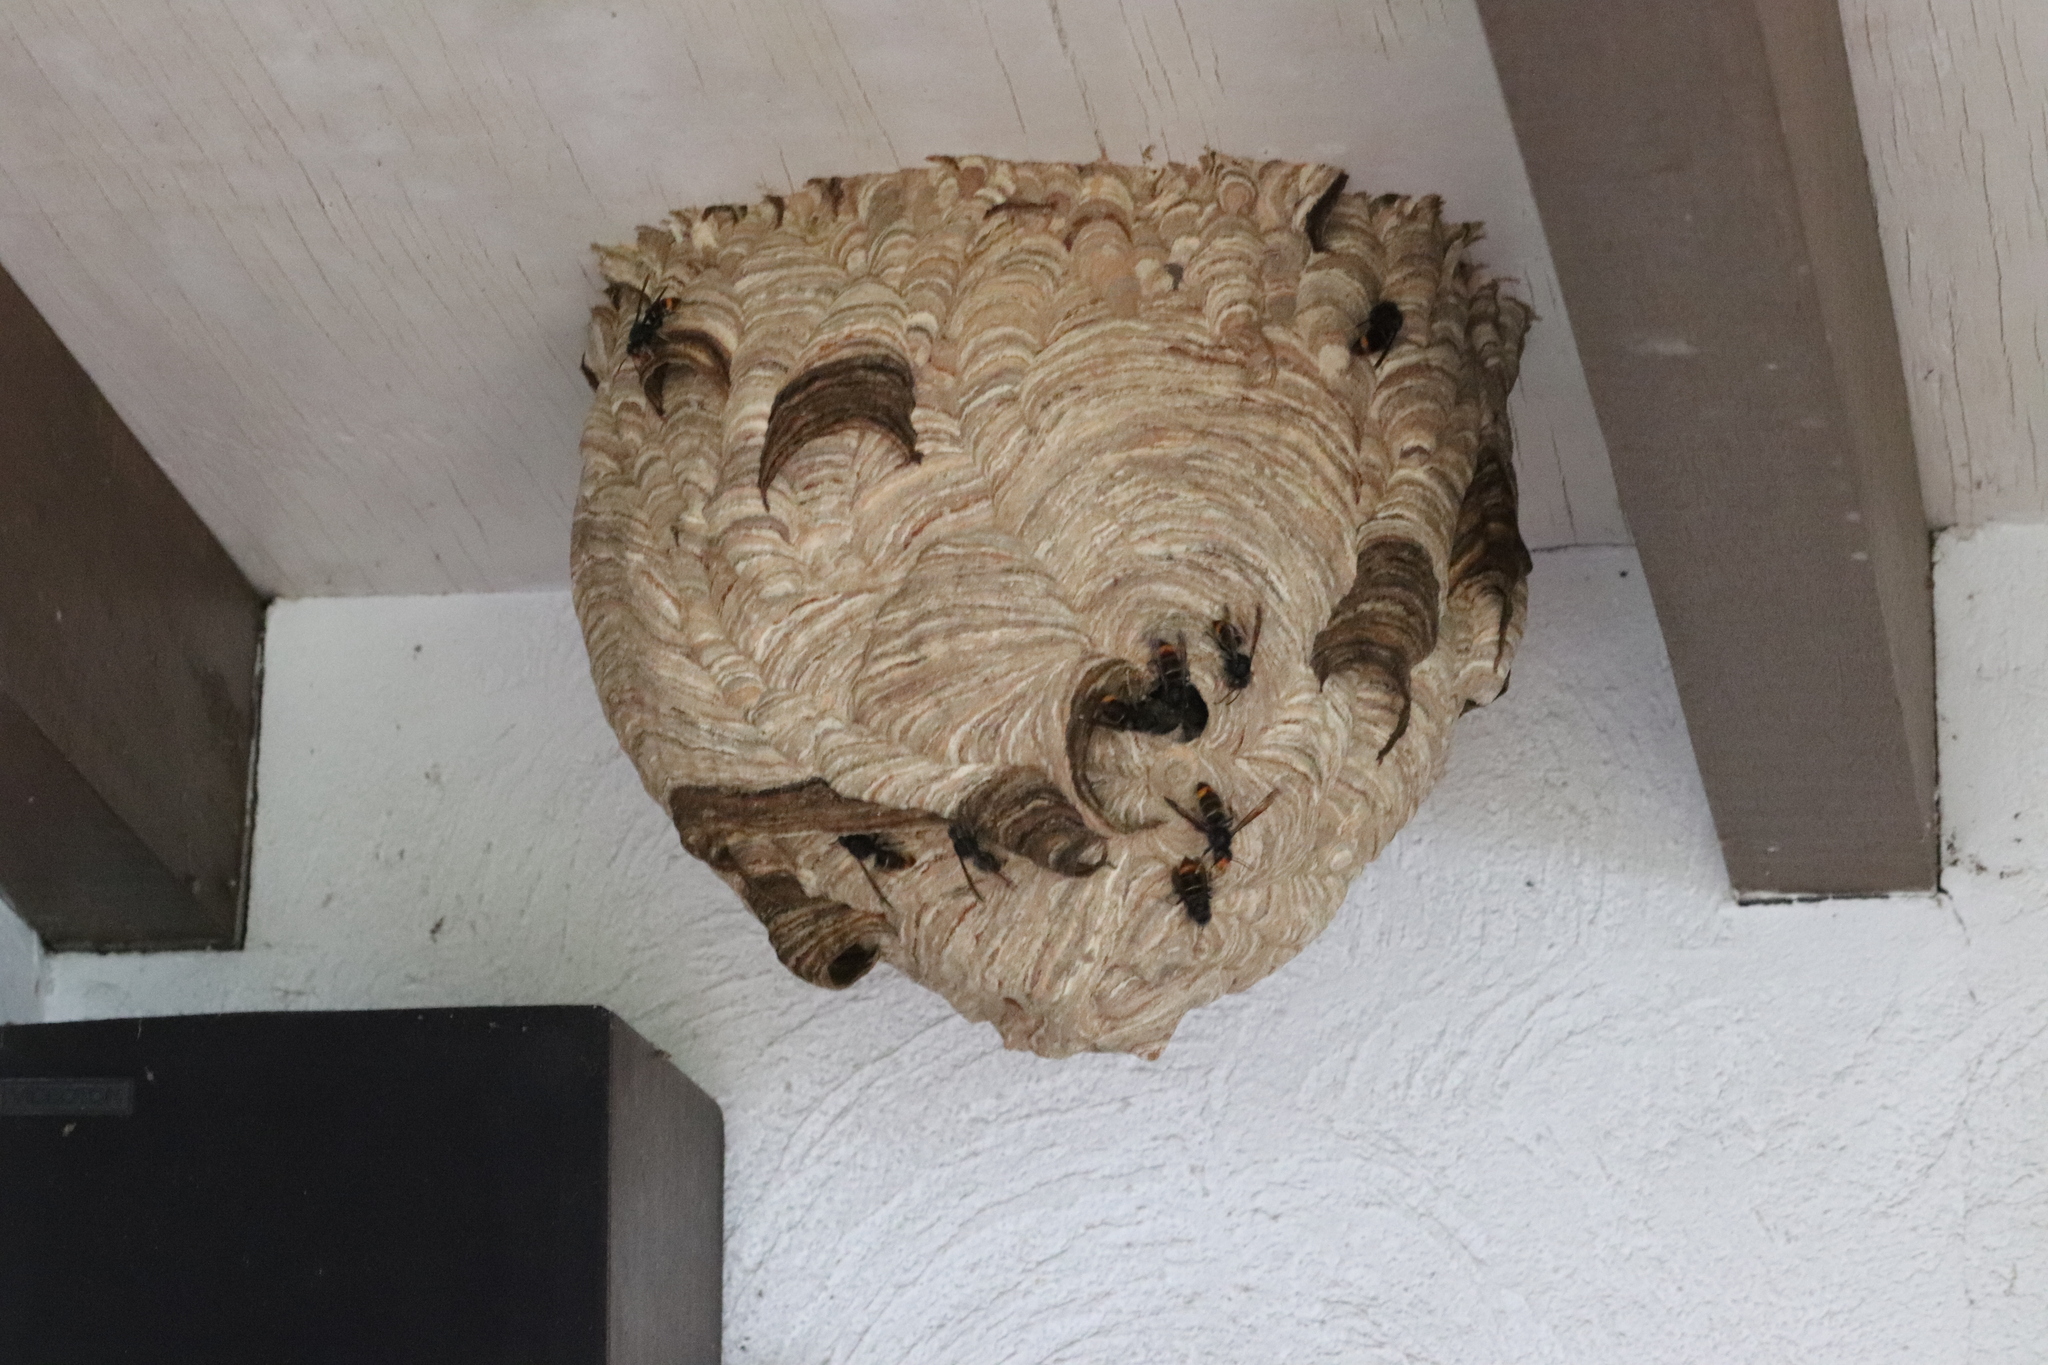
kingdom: Animalia
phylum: Arthropoda
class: Insecta
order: Hymenoptera
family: Vespidae
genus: Vespa
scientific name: Vespa velutina
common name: Asian hornet
